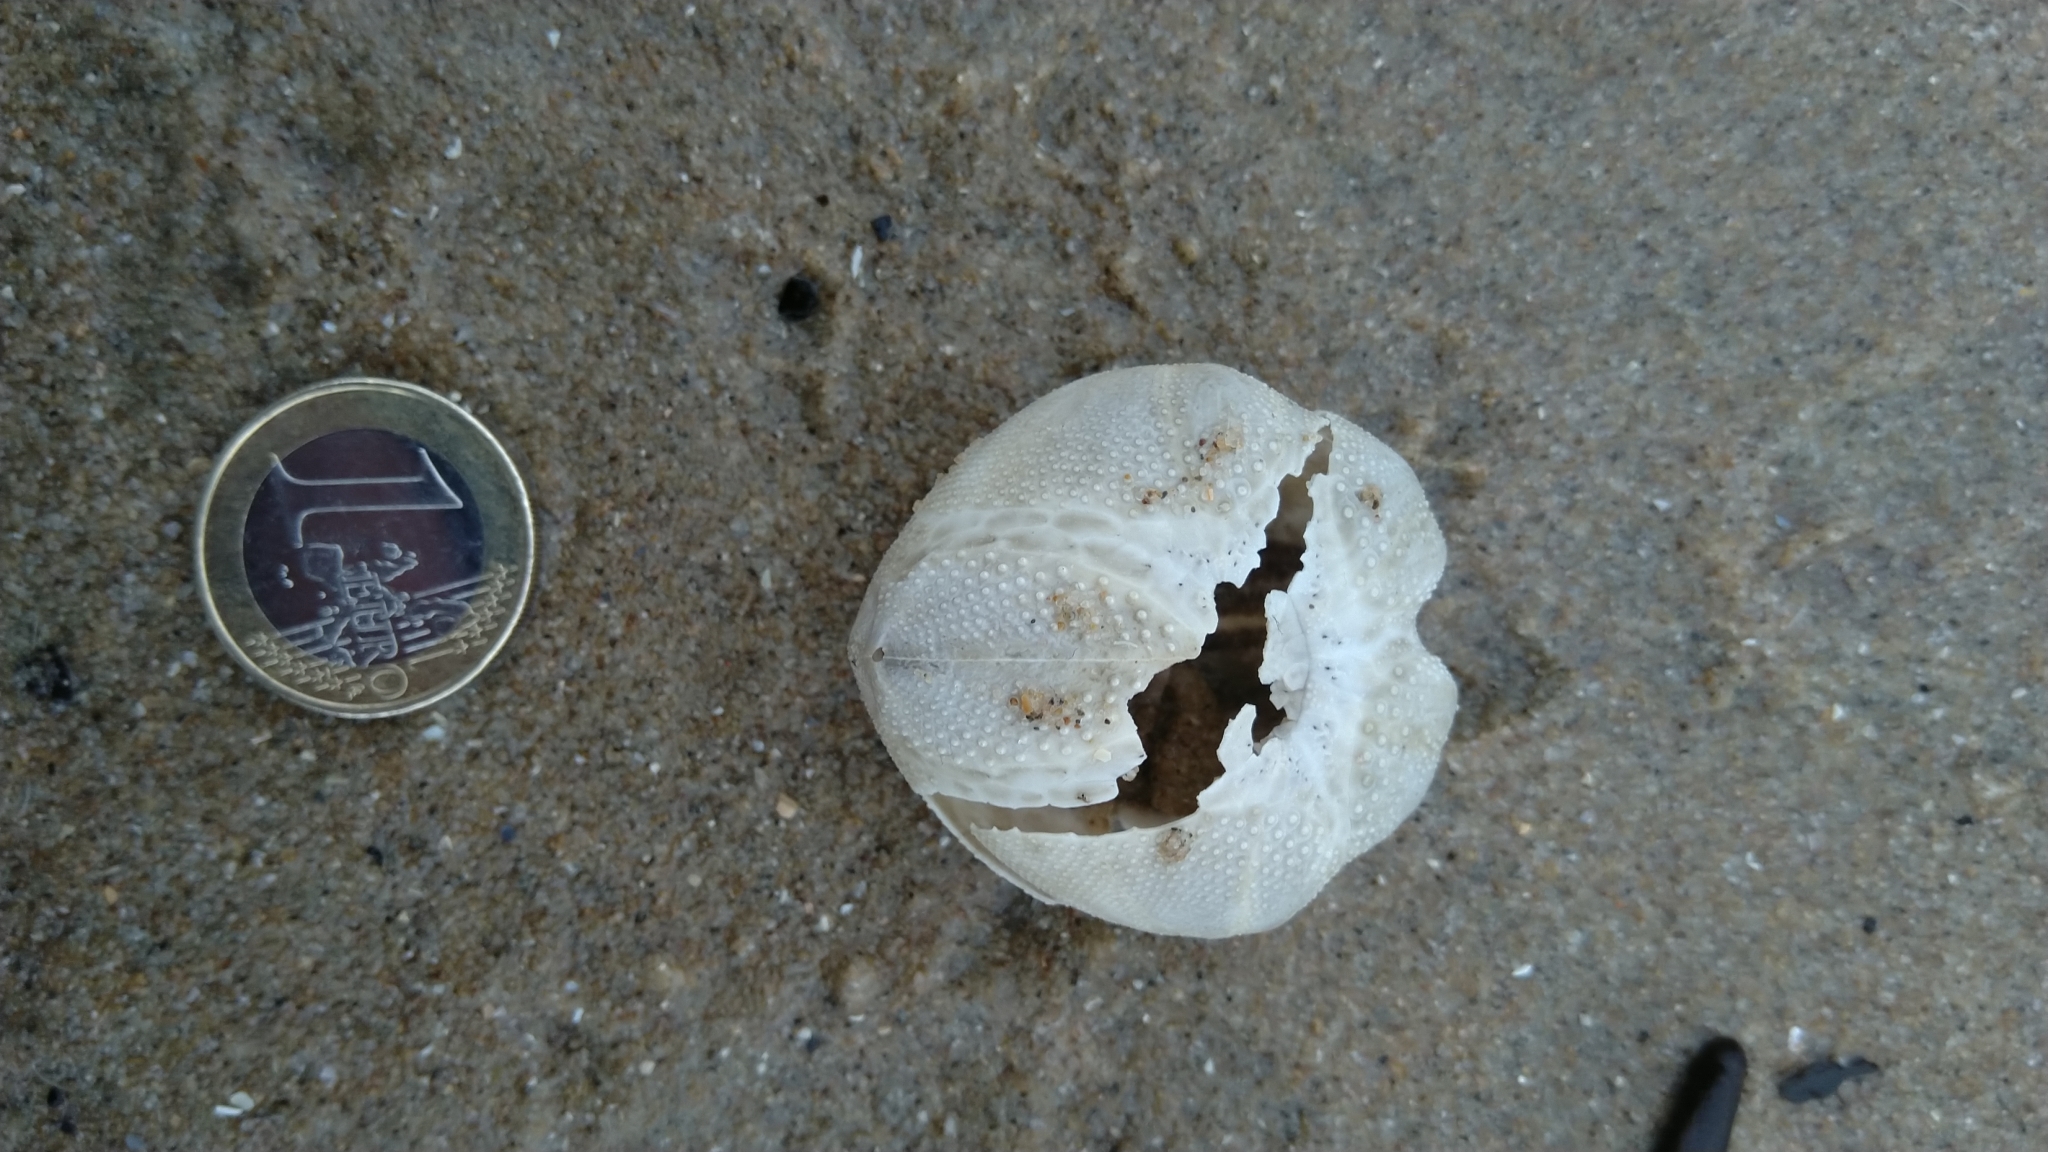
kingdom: Animalia
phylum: Echinodermata
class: Echinoidea
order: Spatangoida
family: Loveniidae
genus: Echinocardium
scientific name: Echinocardium cordatum
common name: Heart-urchin
